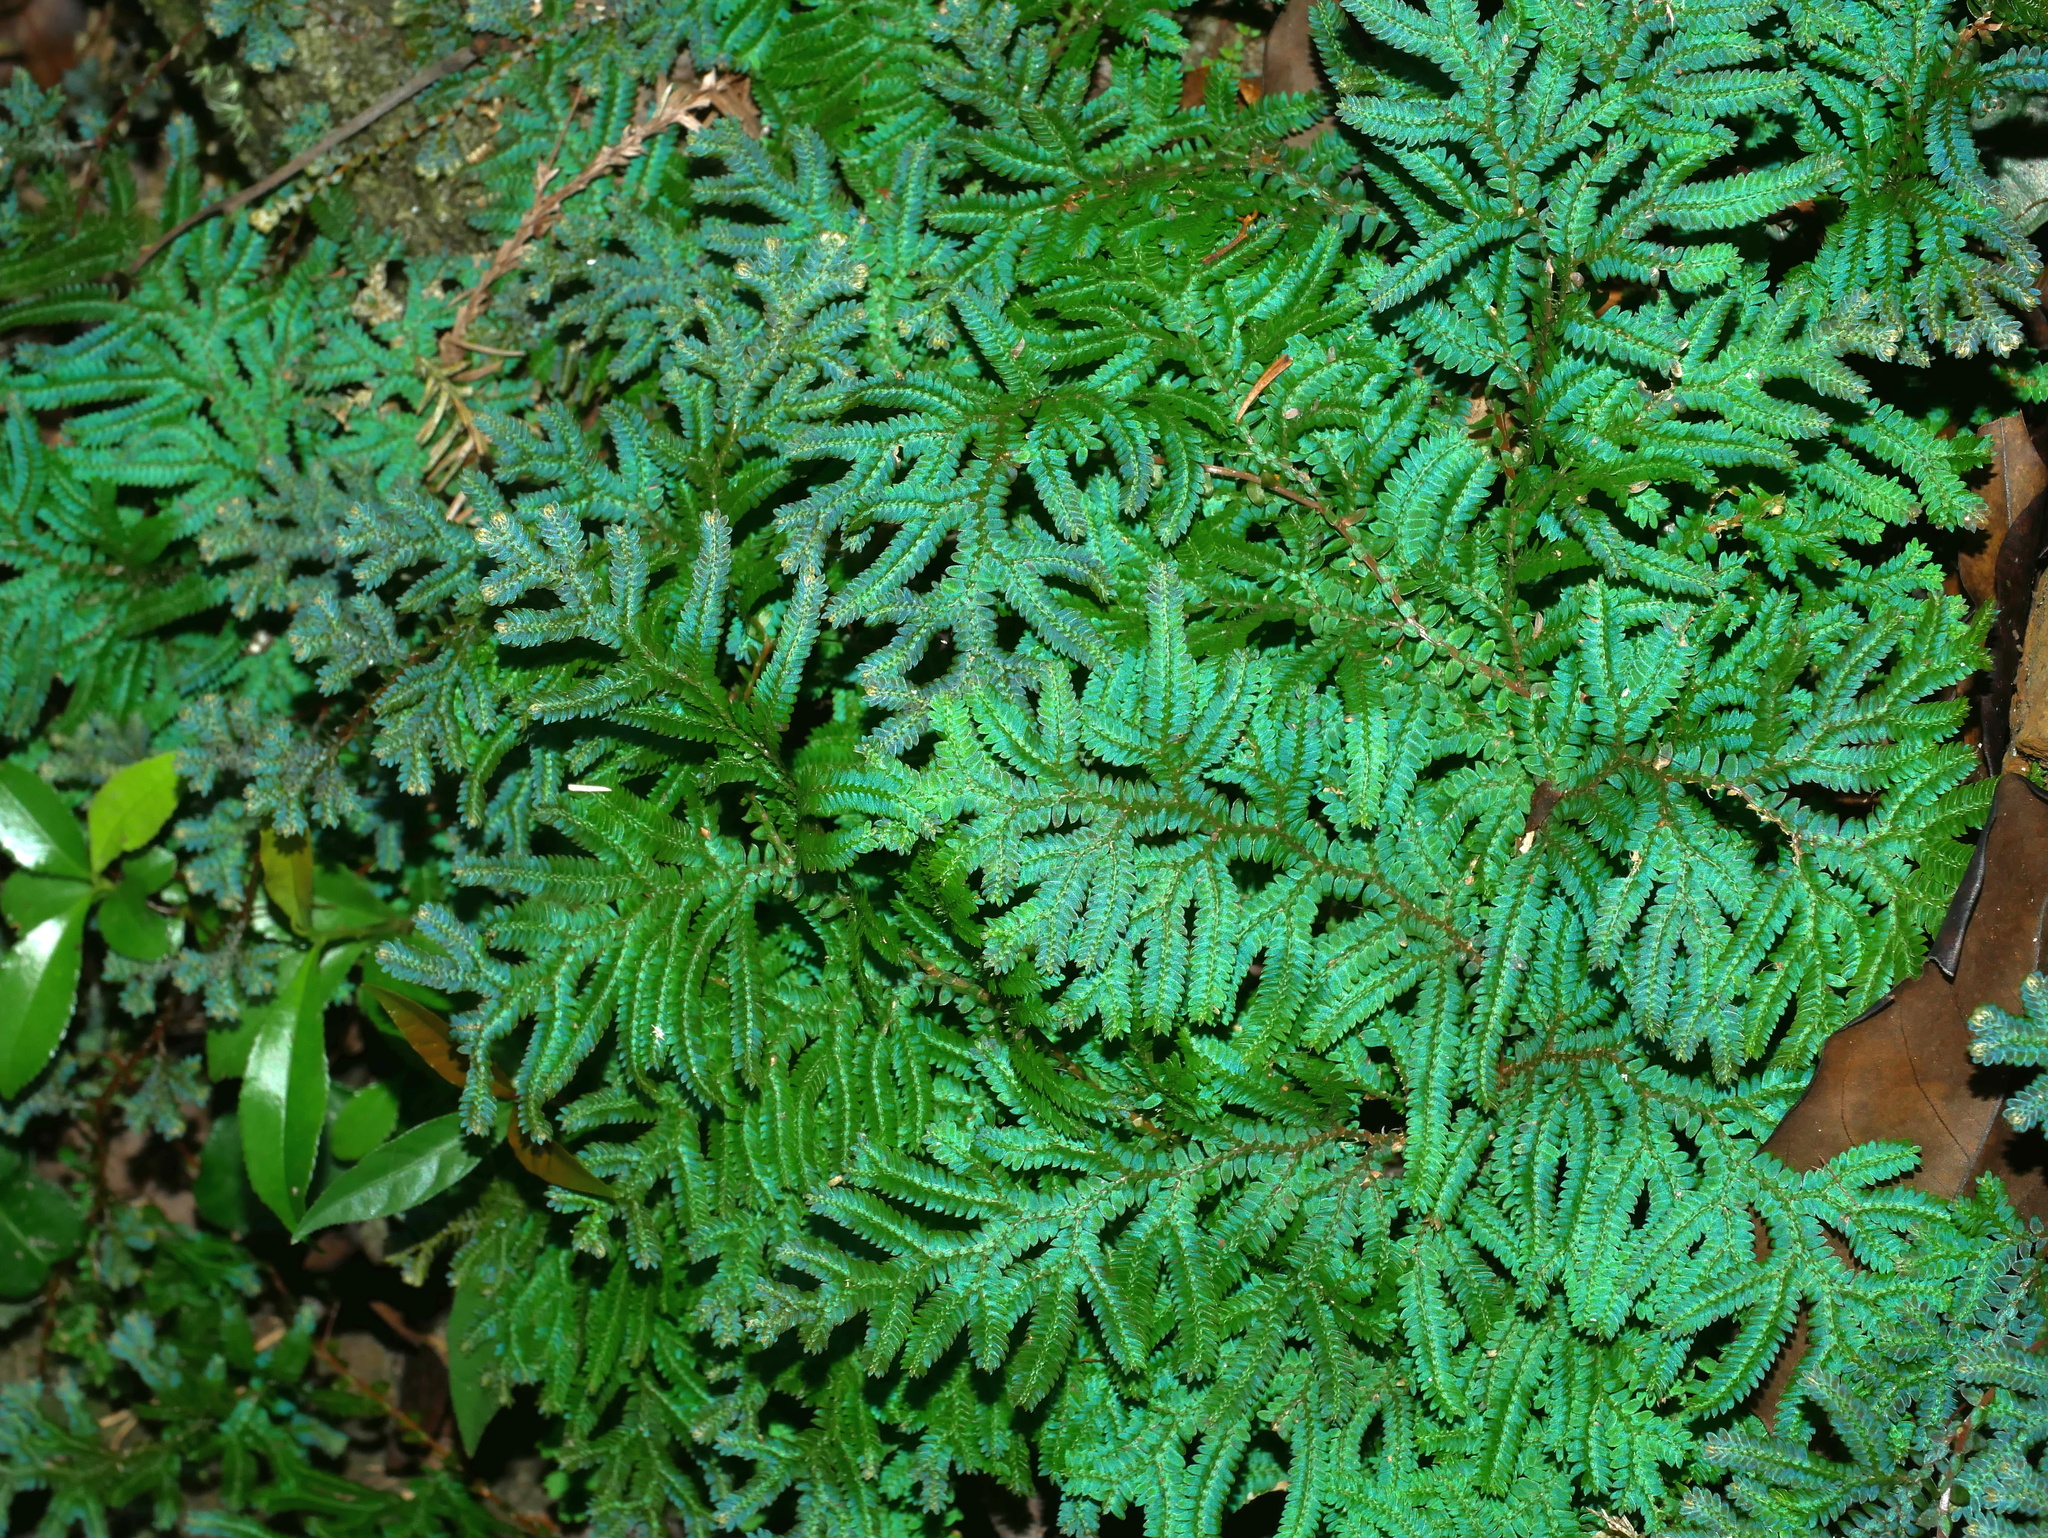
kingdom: Plantae
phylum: Tracheophyta
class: Lycopodiopsida
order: Selaginellales
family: Selaginellaceae
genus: Selaginella
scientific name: Selaginella uncinata
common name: Blue spikemoss
